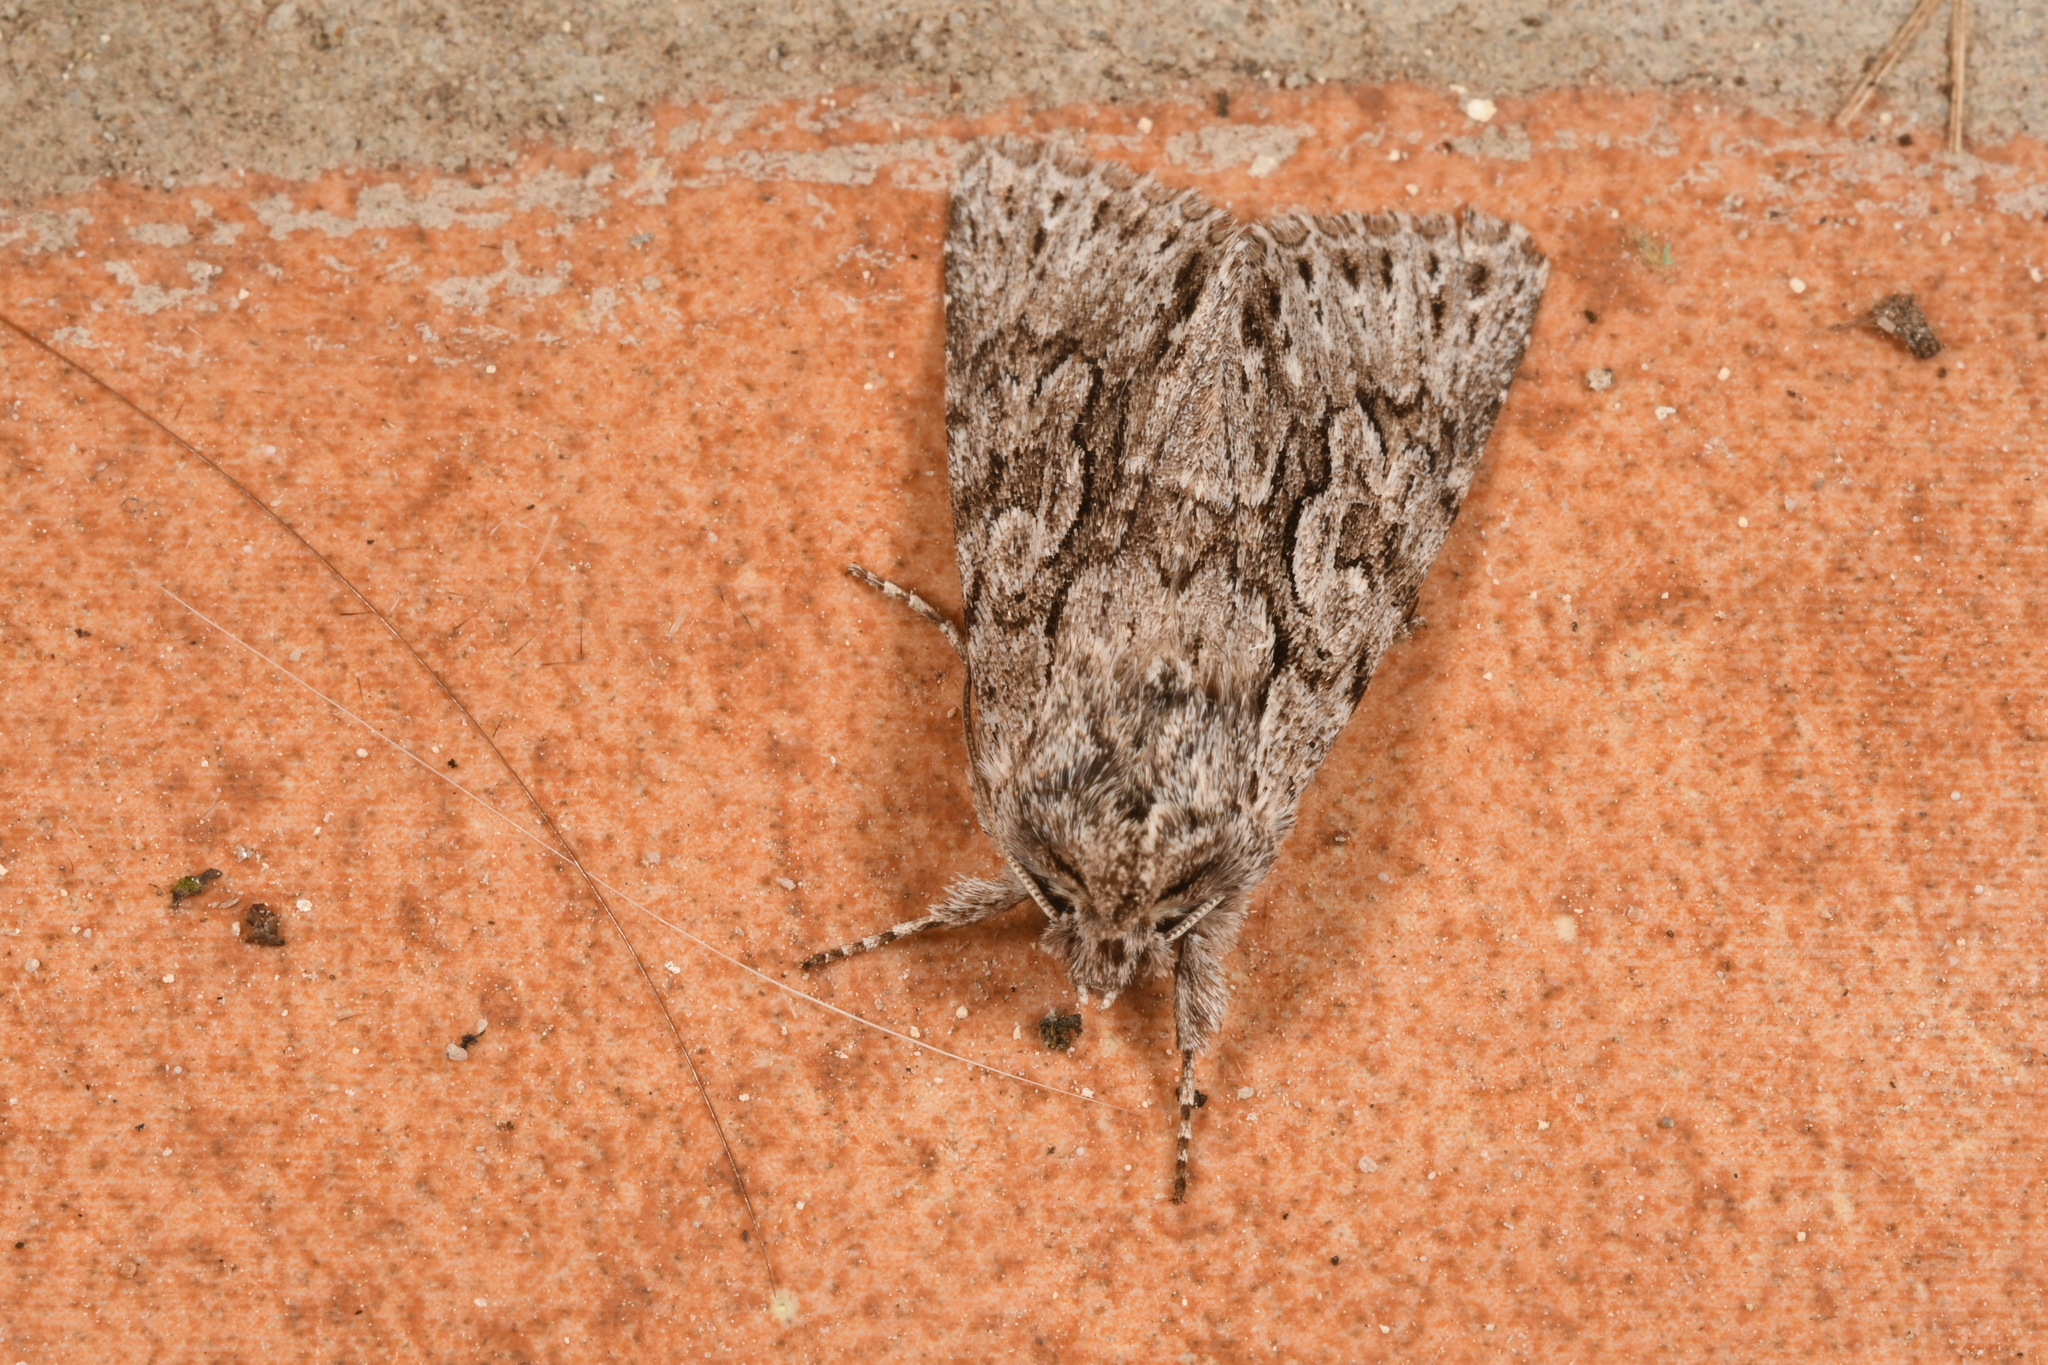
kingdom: Animalia
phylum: Arthropoda
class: Insecta
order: Lepidoptera
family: Noctuidae
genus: Xylocampa
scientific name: Xylocampa areola
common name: Early grey
